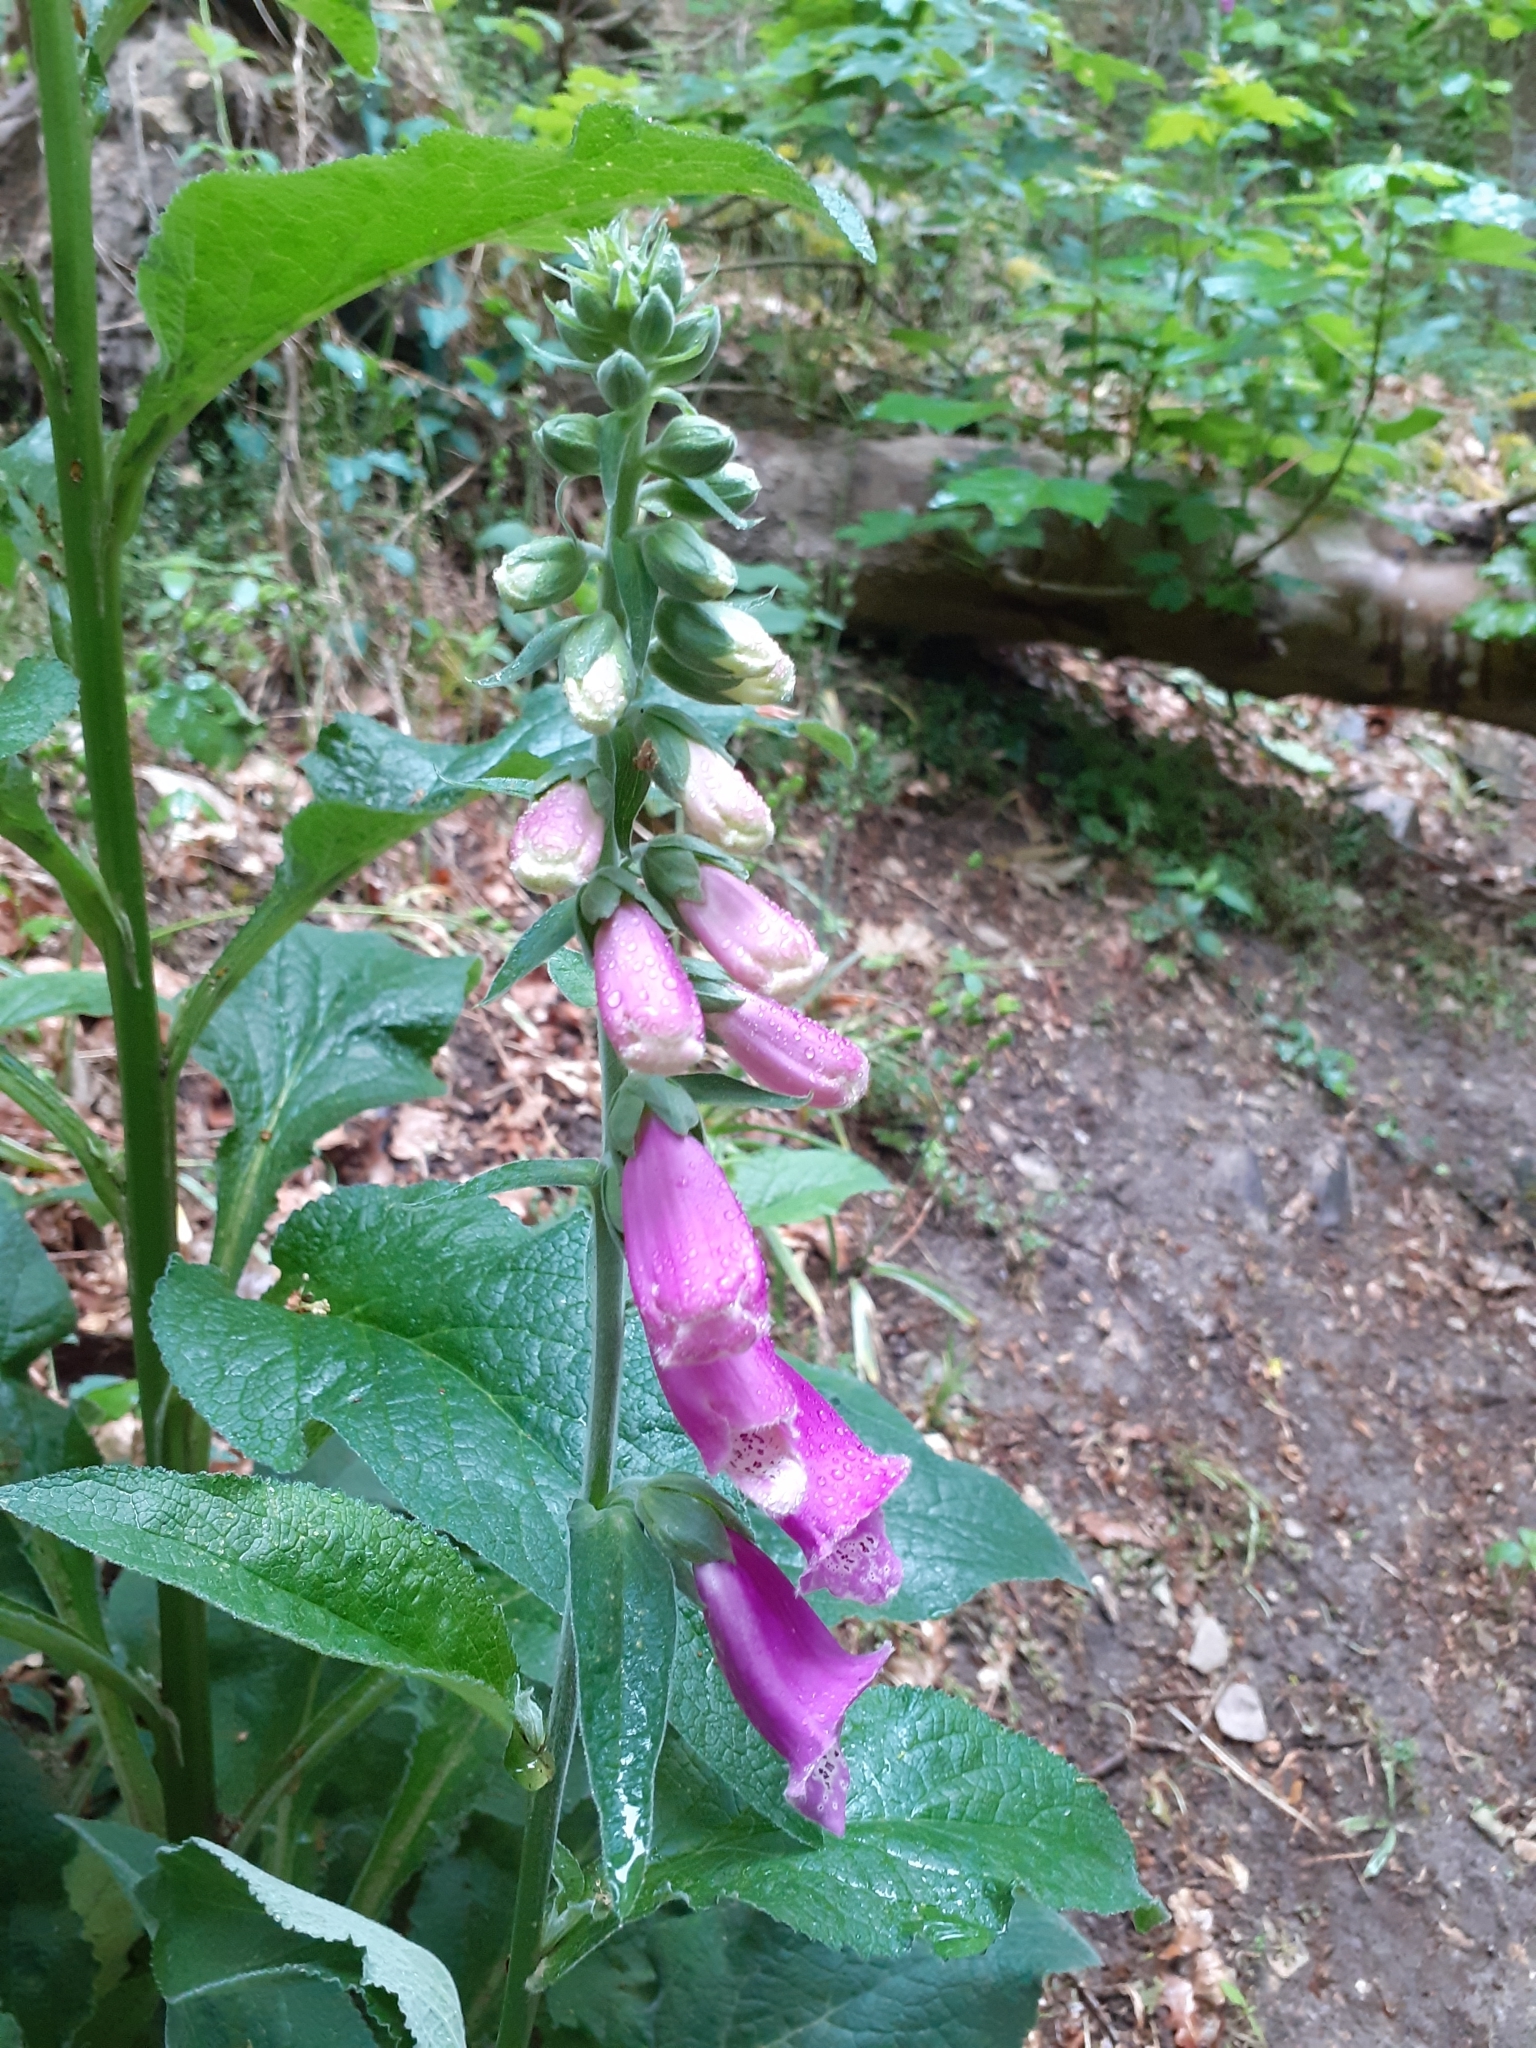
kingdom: Plantae
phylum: Tracheophyta
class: Magnoliopsida
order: Lamiales
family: Plantaginaceae
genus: Digitalis
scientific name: Digitalis purpurea
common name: Foxglove
